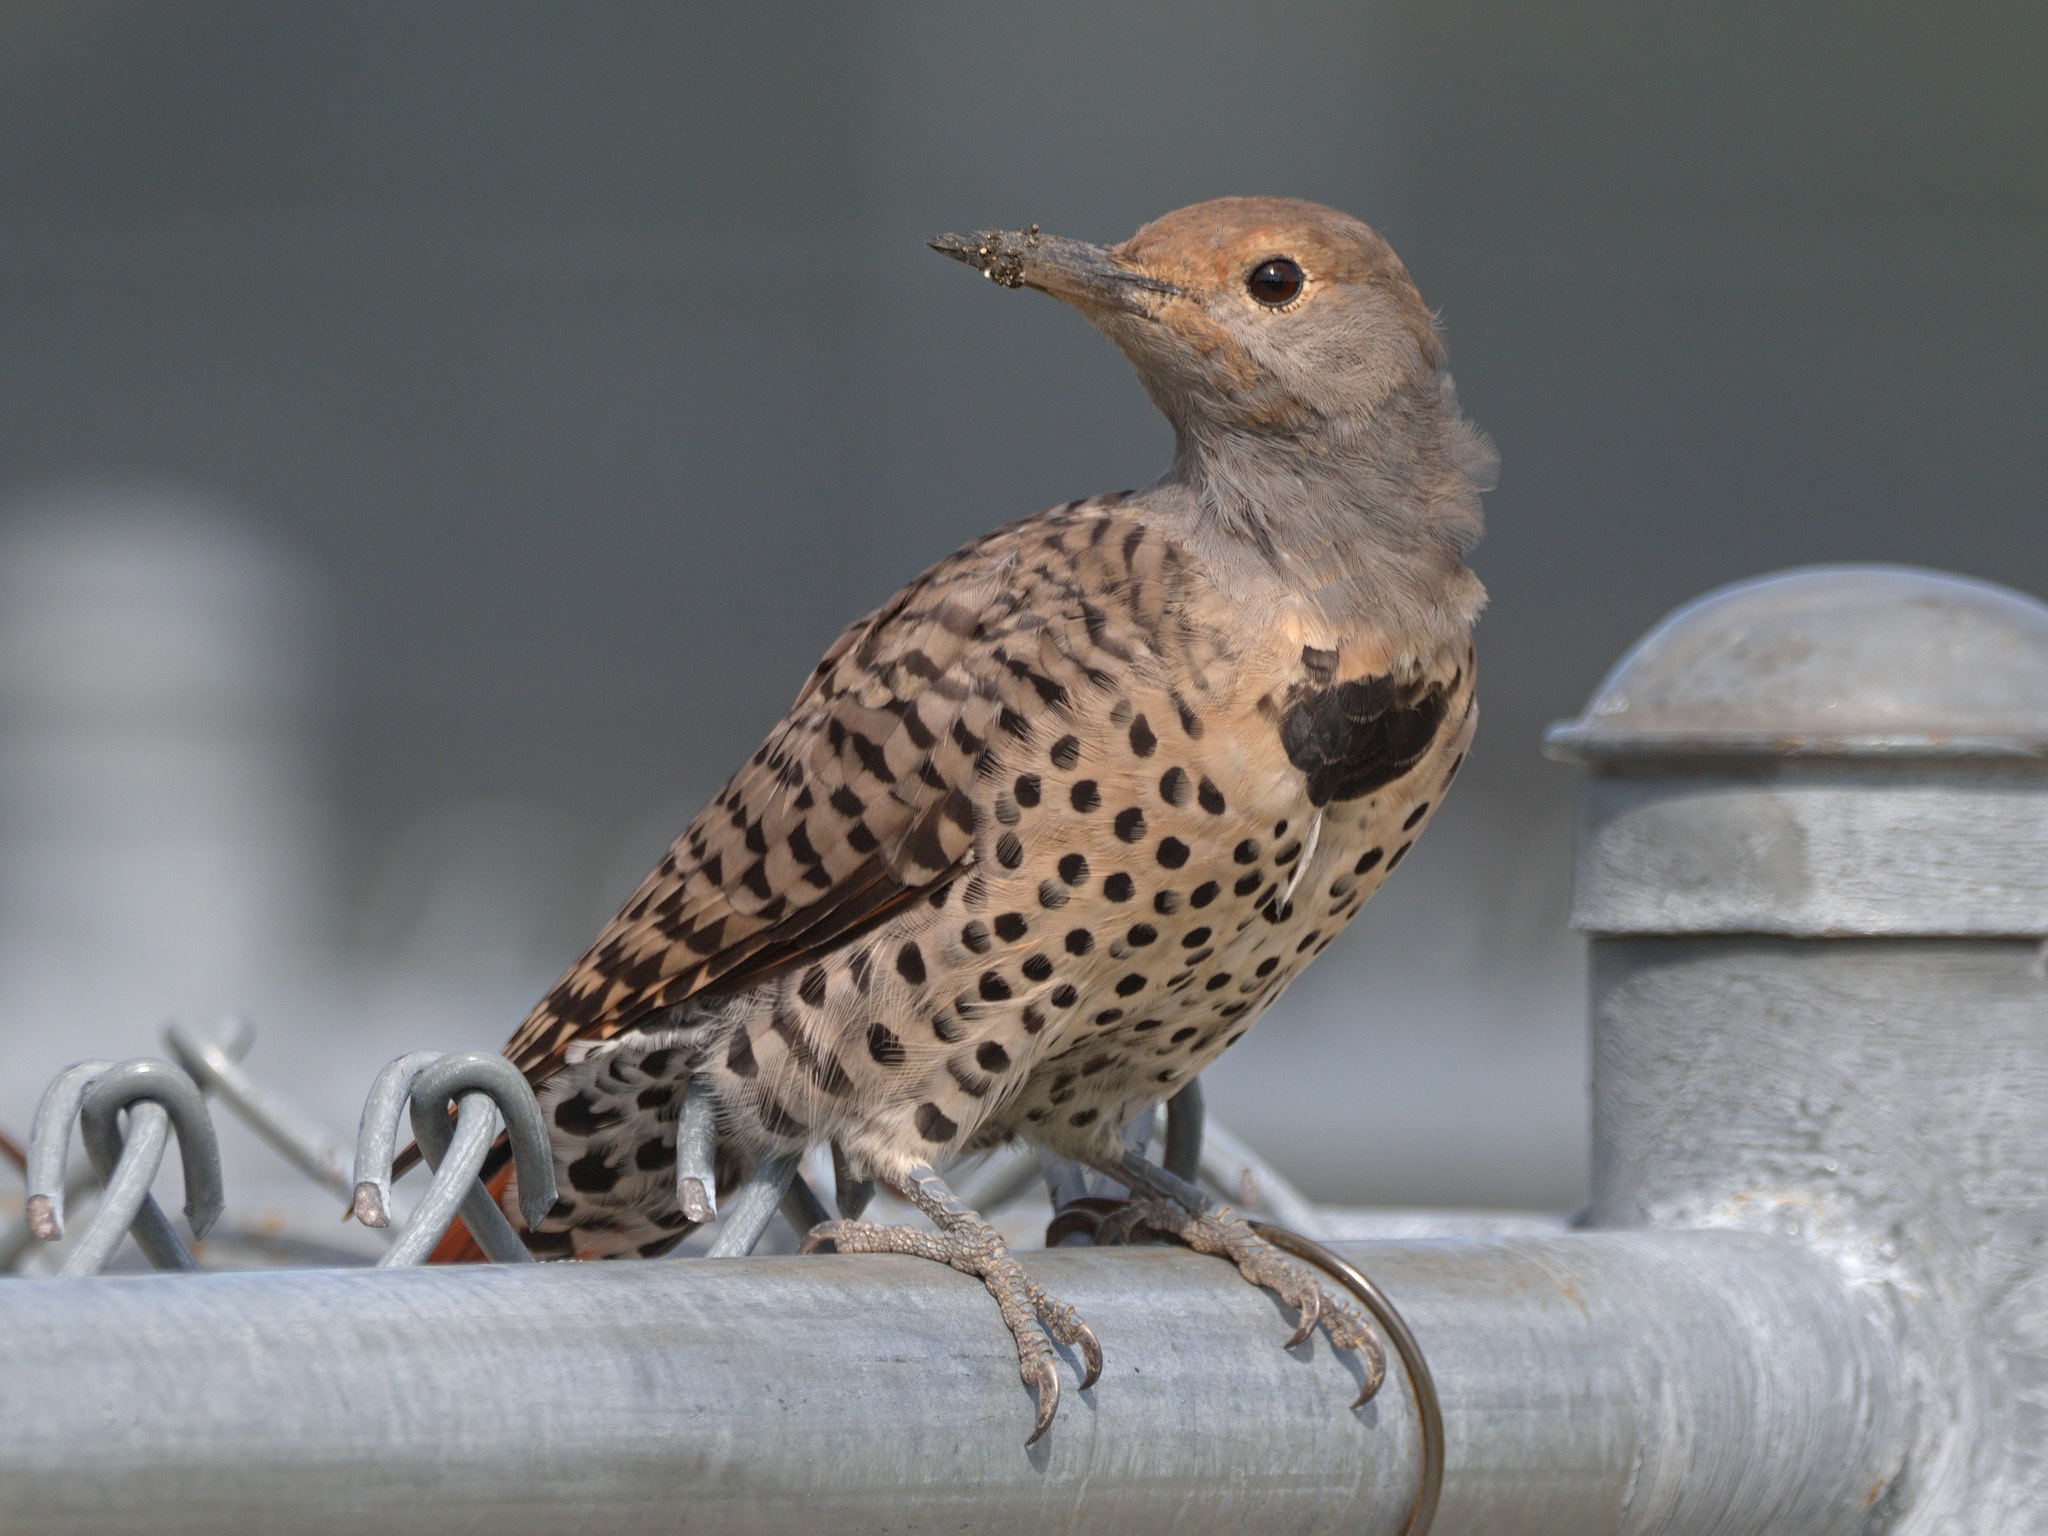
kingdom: Animalia
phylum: Chordata
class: Aves
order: Piciformes
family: Picidae
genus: Colaptes
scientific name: Colaptes auratus
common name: Northern flicker
